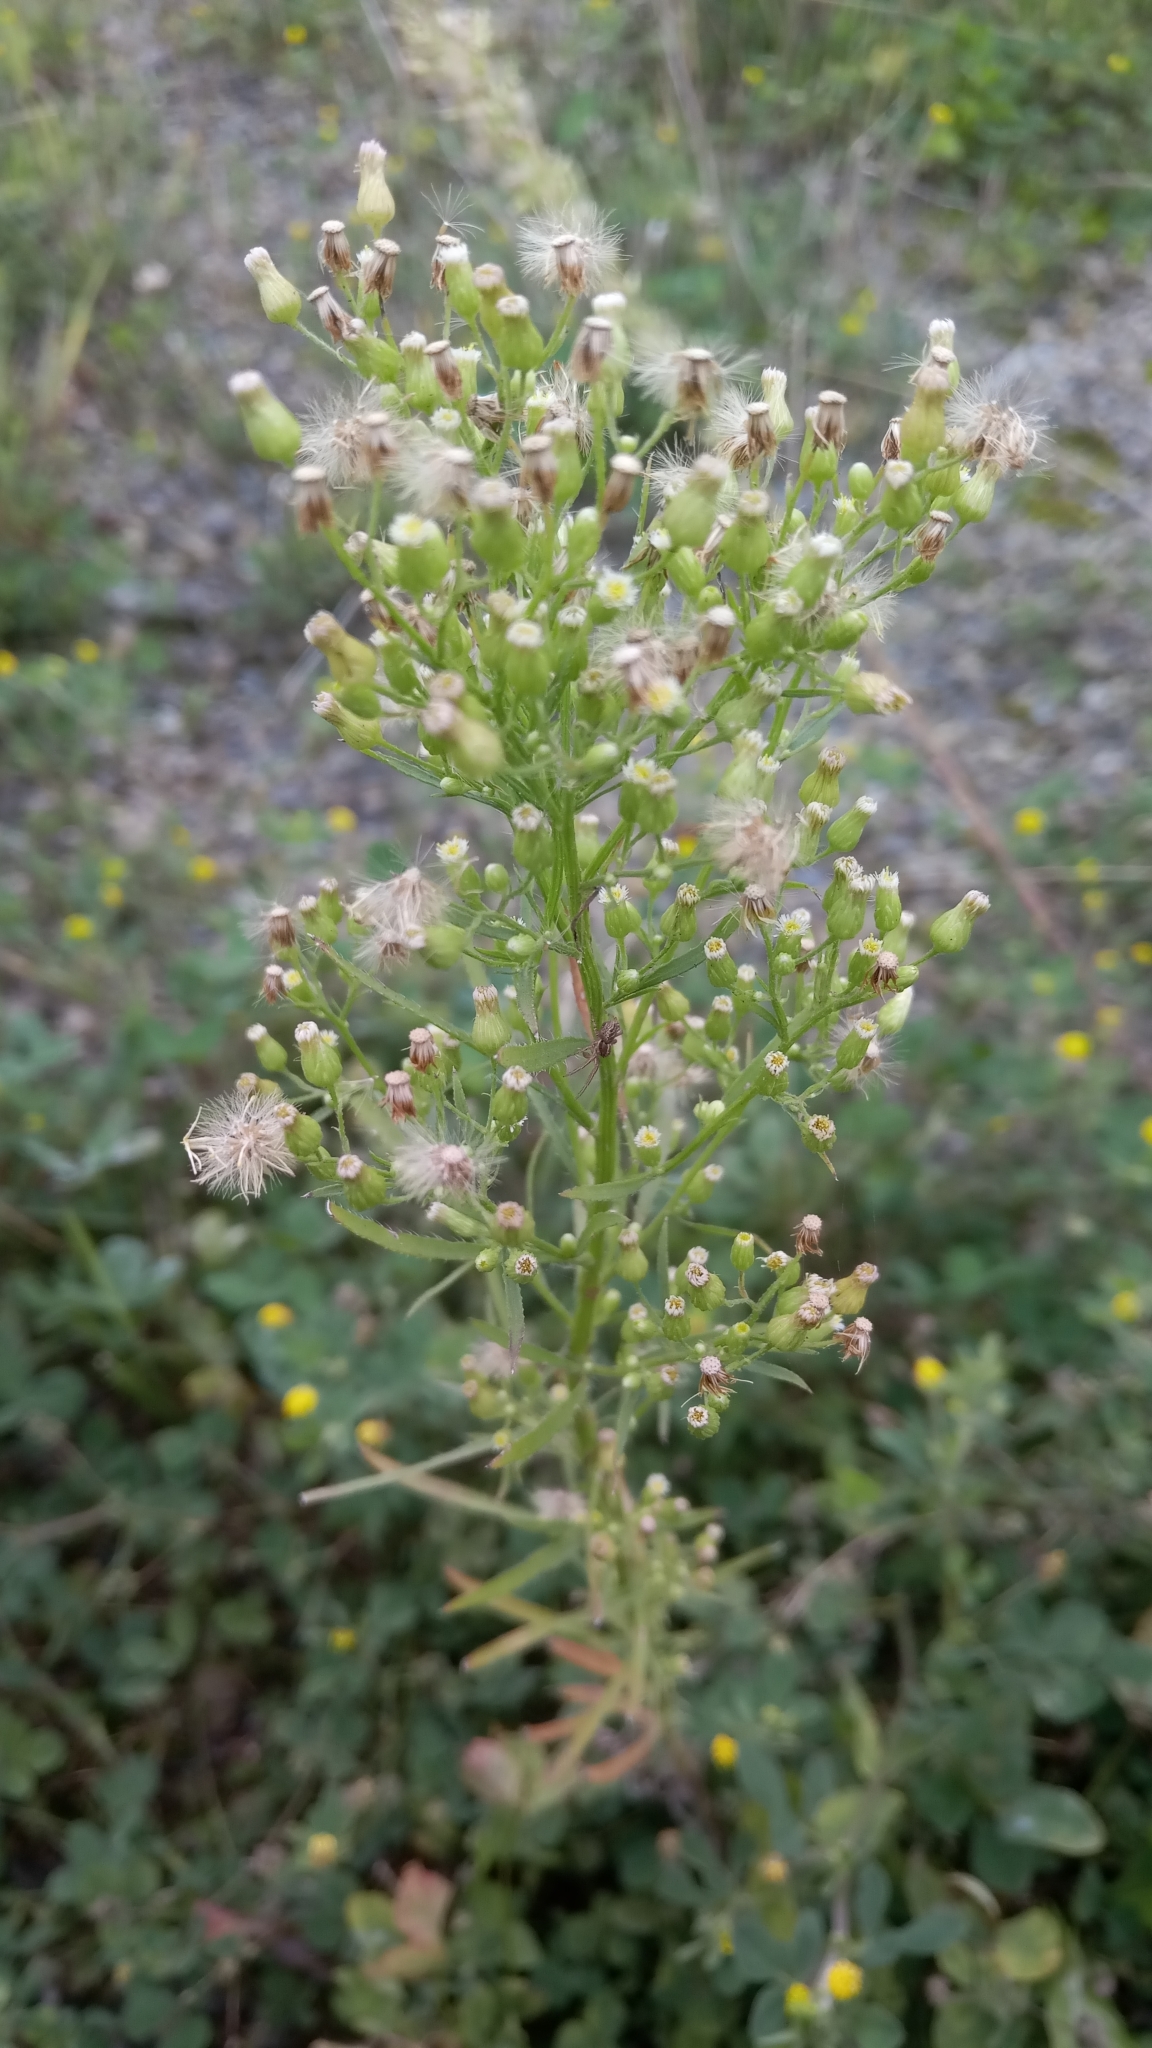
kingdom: Plantae
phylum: Tracheophyta
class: Magnoliopsida
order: Asterales
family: Asteraceae
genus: Erigeron
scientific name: Erigeron canadensis
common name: Canadian fleabane
